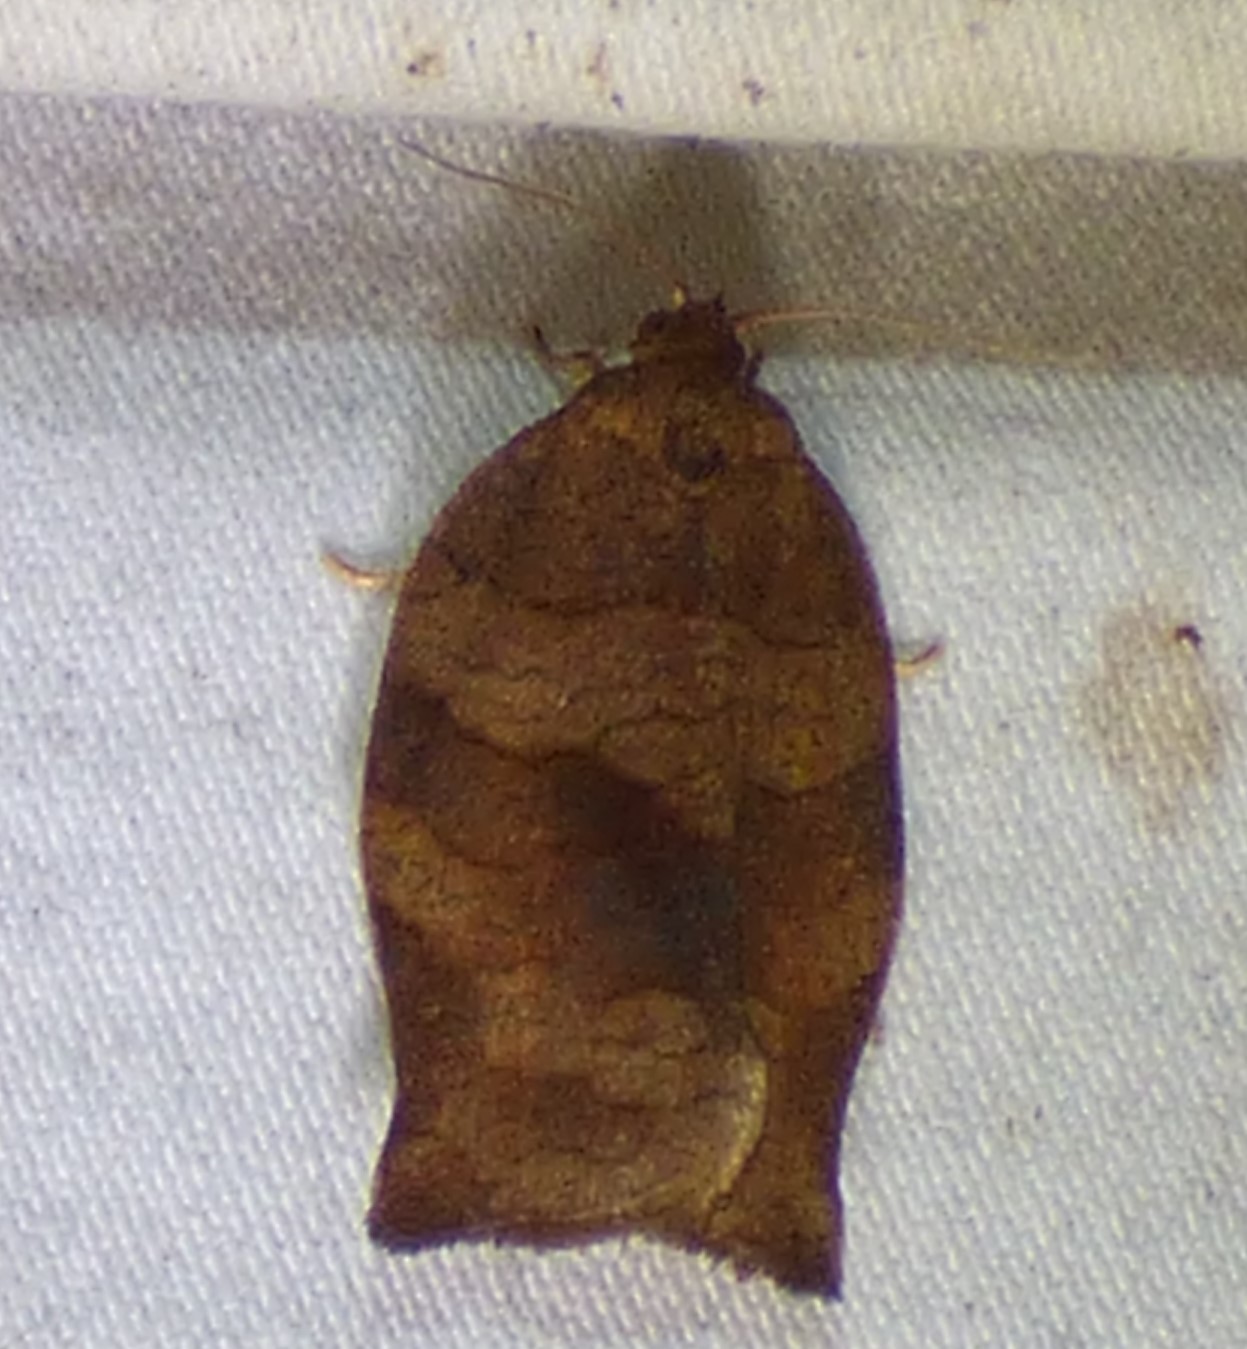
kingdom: Animalia
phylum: Arthropoda
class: Insecta
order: Lepidoptera
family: Tortricidae
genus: Choristoneura
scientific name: Choristoneura rosaceana
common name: Oblique-banded leafroller moth
